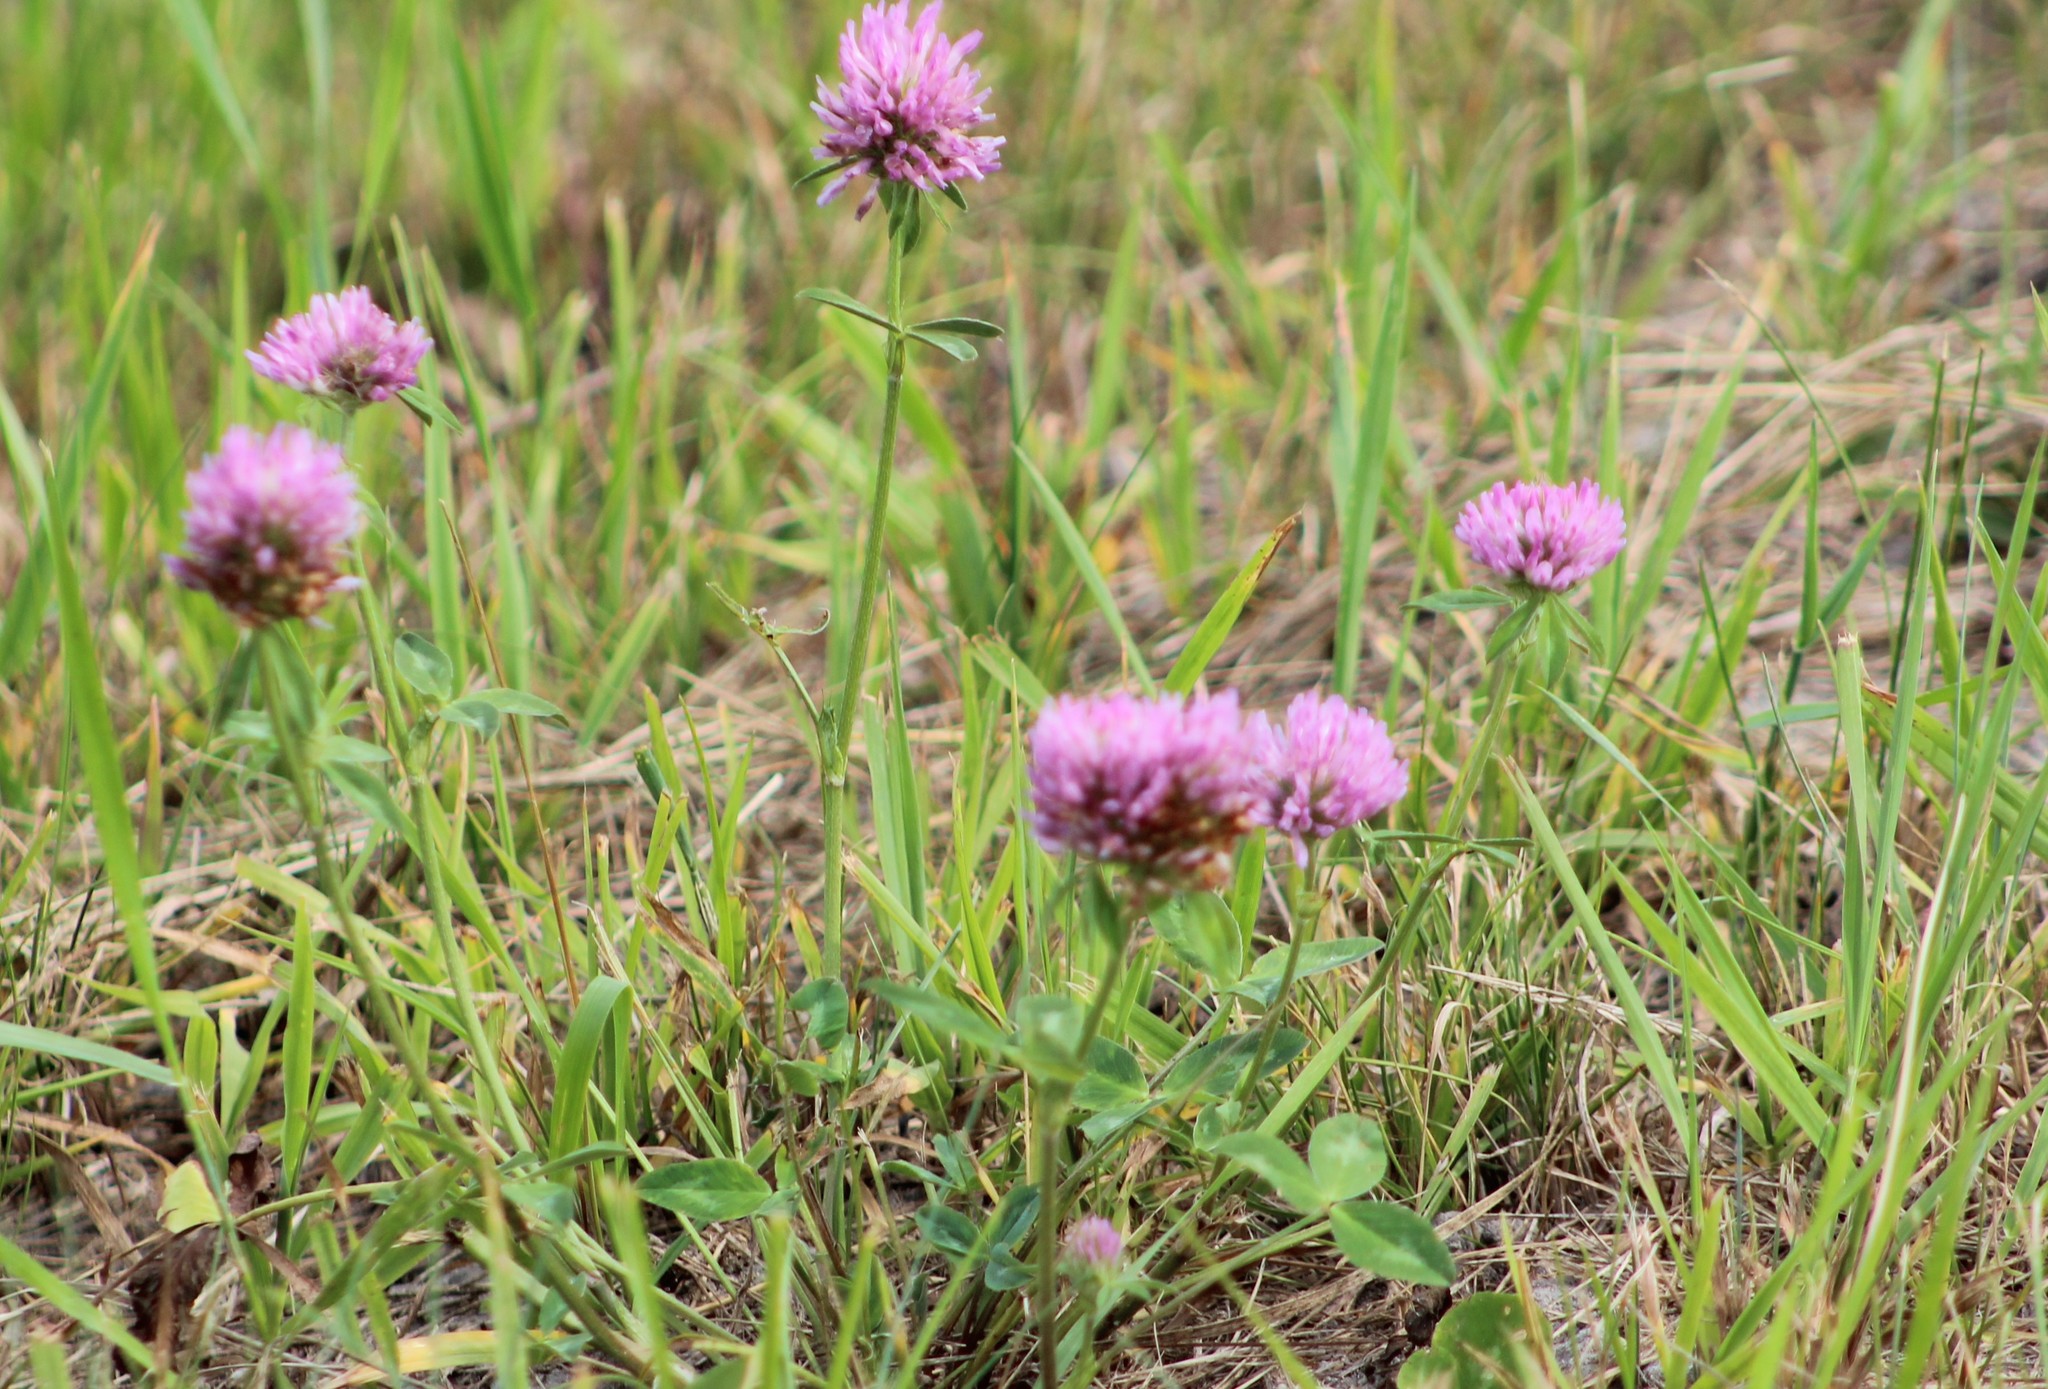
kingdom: Plantae
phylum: Tracheophyta
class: Magnoliopsida
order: Fabales
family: Fabaceae
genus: Trifolium
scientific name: Trifolium pratense
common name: Red clover
